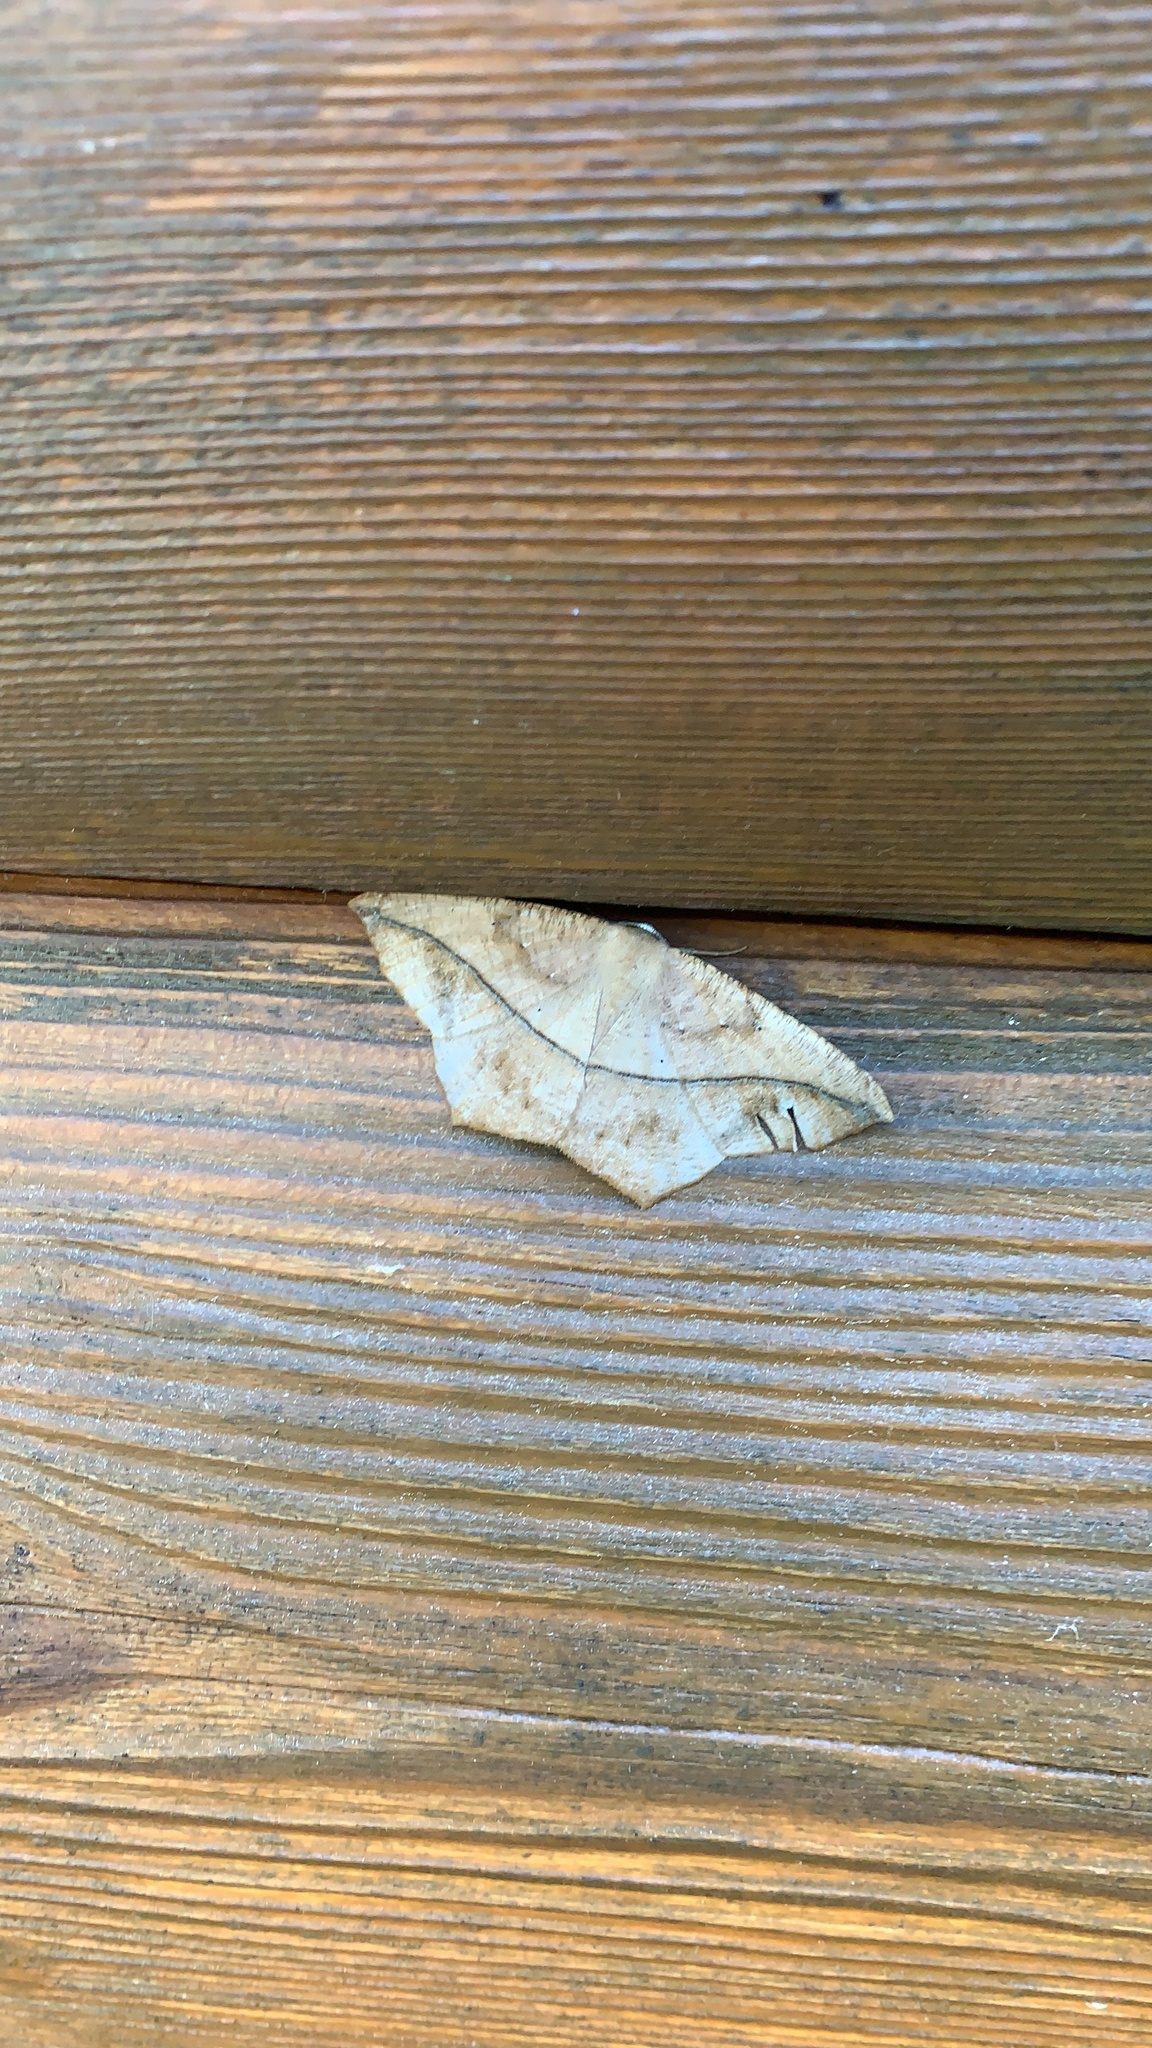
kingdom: Animalia
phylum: Arthropoda
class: Insecta
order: Lepidoptera
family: Geometridae
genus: Prochoerodes
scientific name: Prochoerodes lineola
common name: Large maple spanworm
